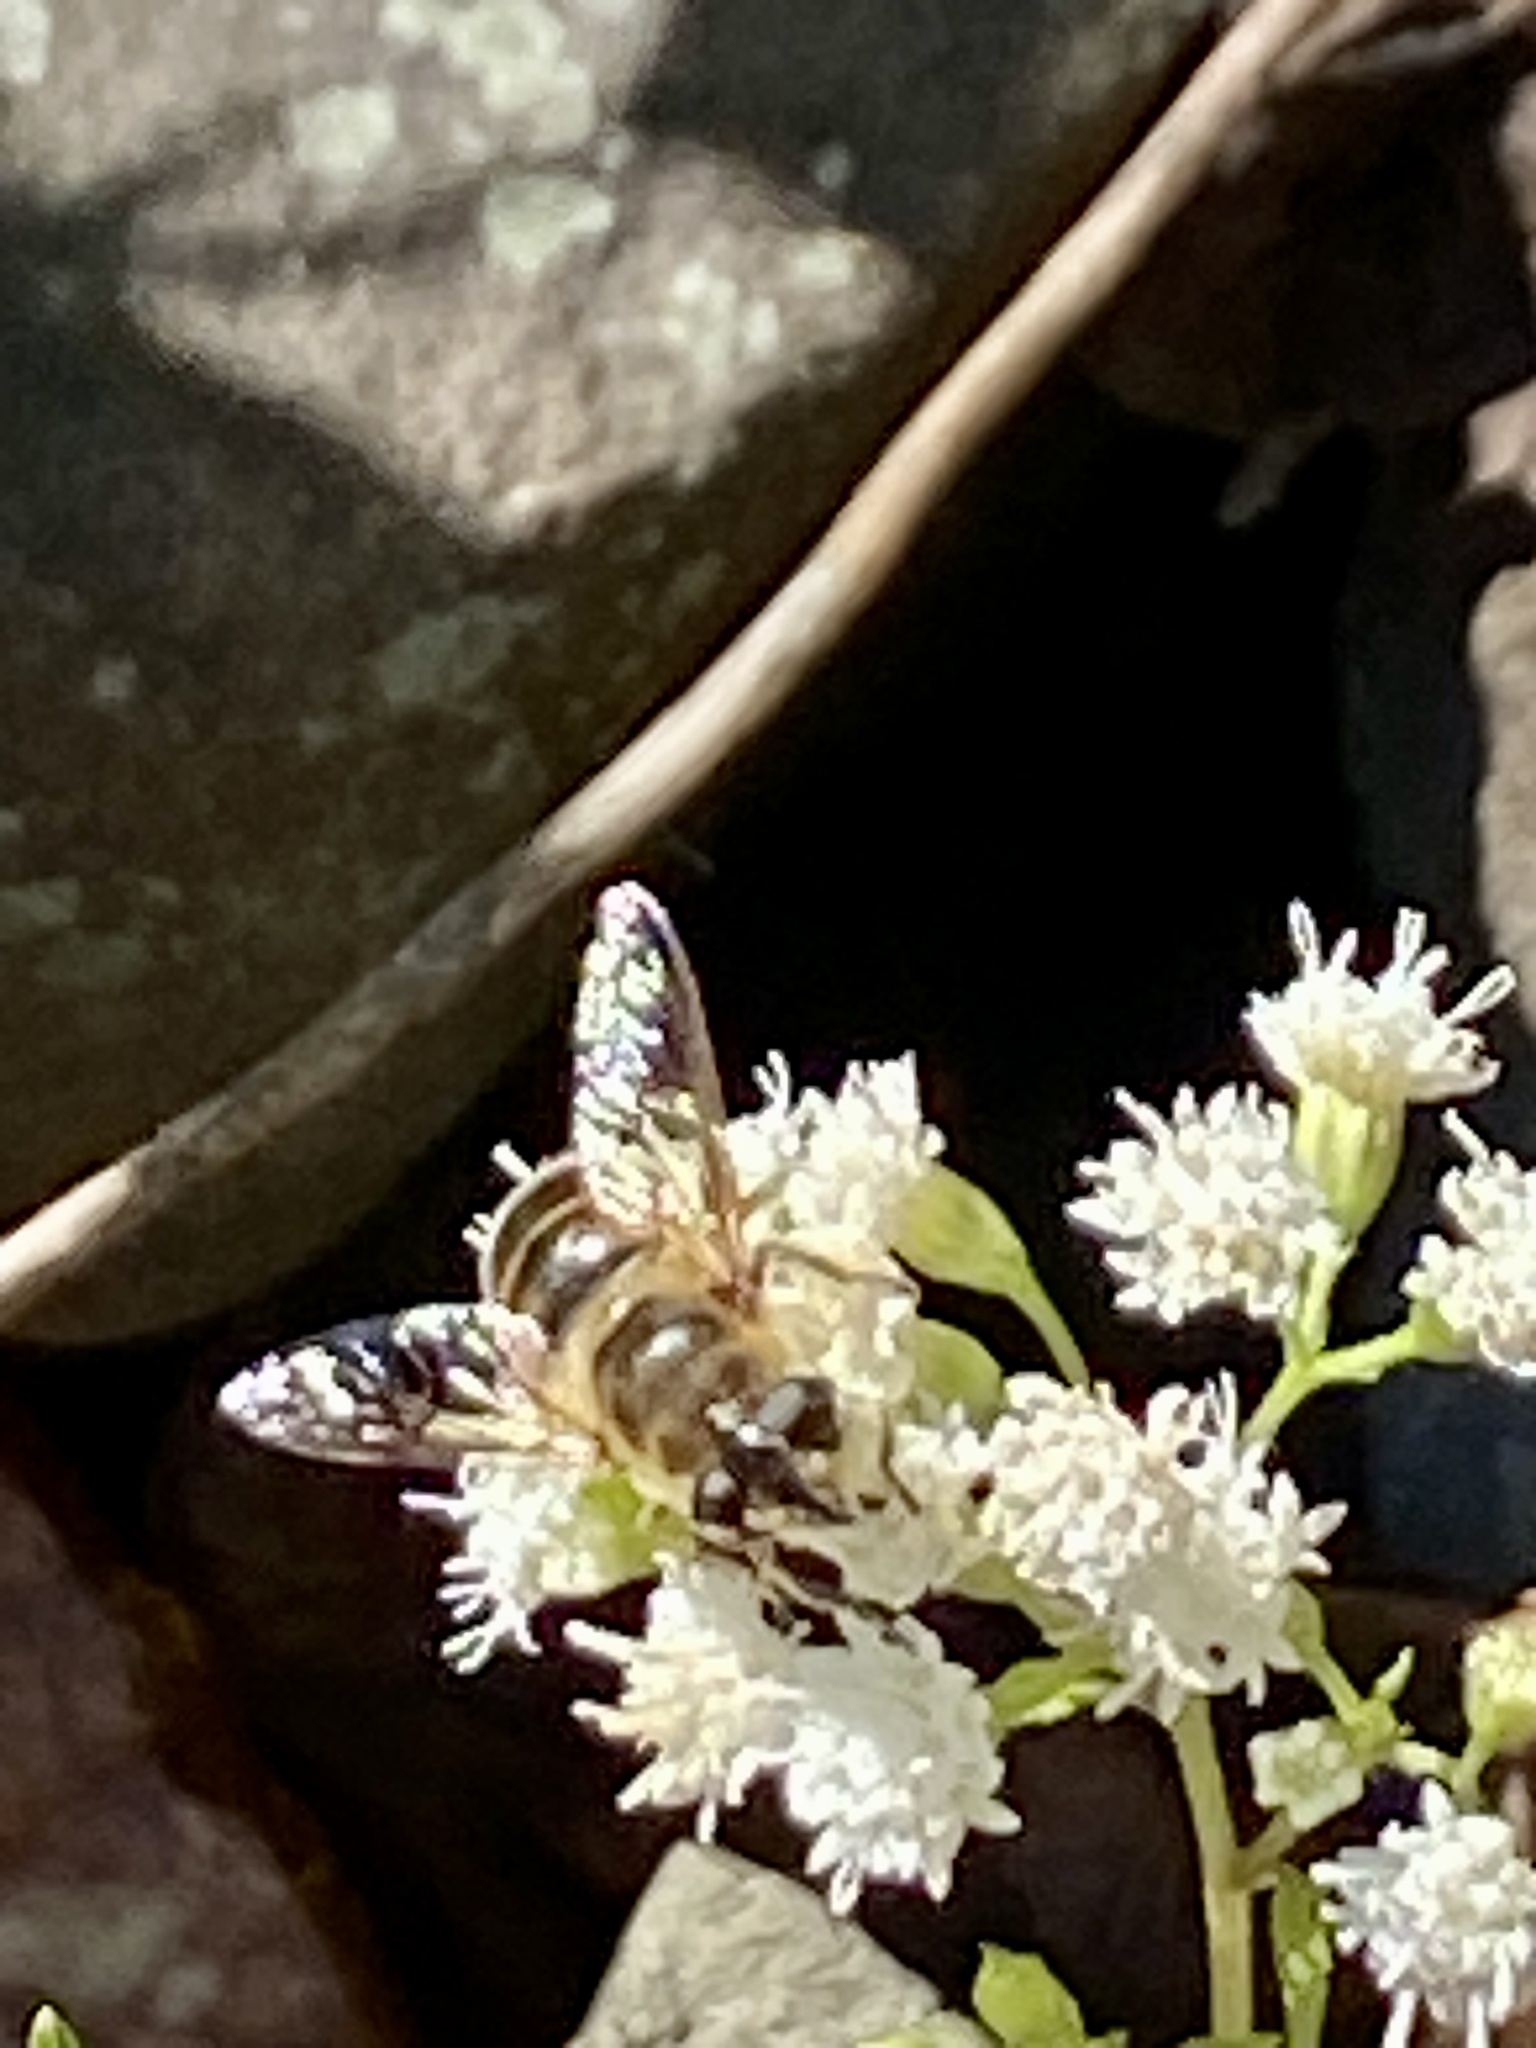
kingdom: Animalia
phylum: Arthropoda
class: Insecta
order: Diptera
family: Syrphidae
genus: Eristalis
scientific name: Eristalis tenax
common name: Drone fly
